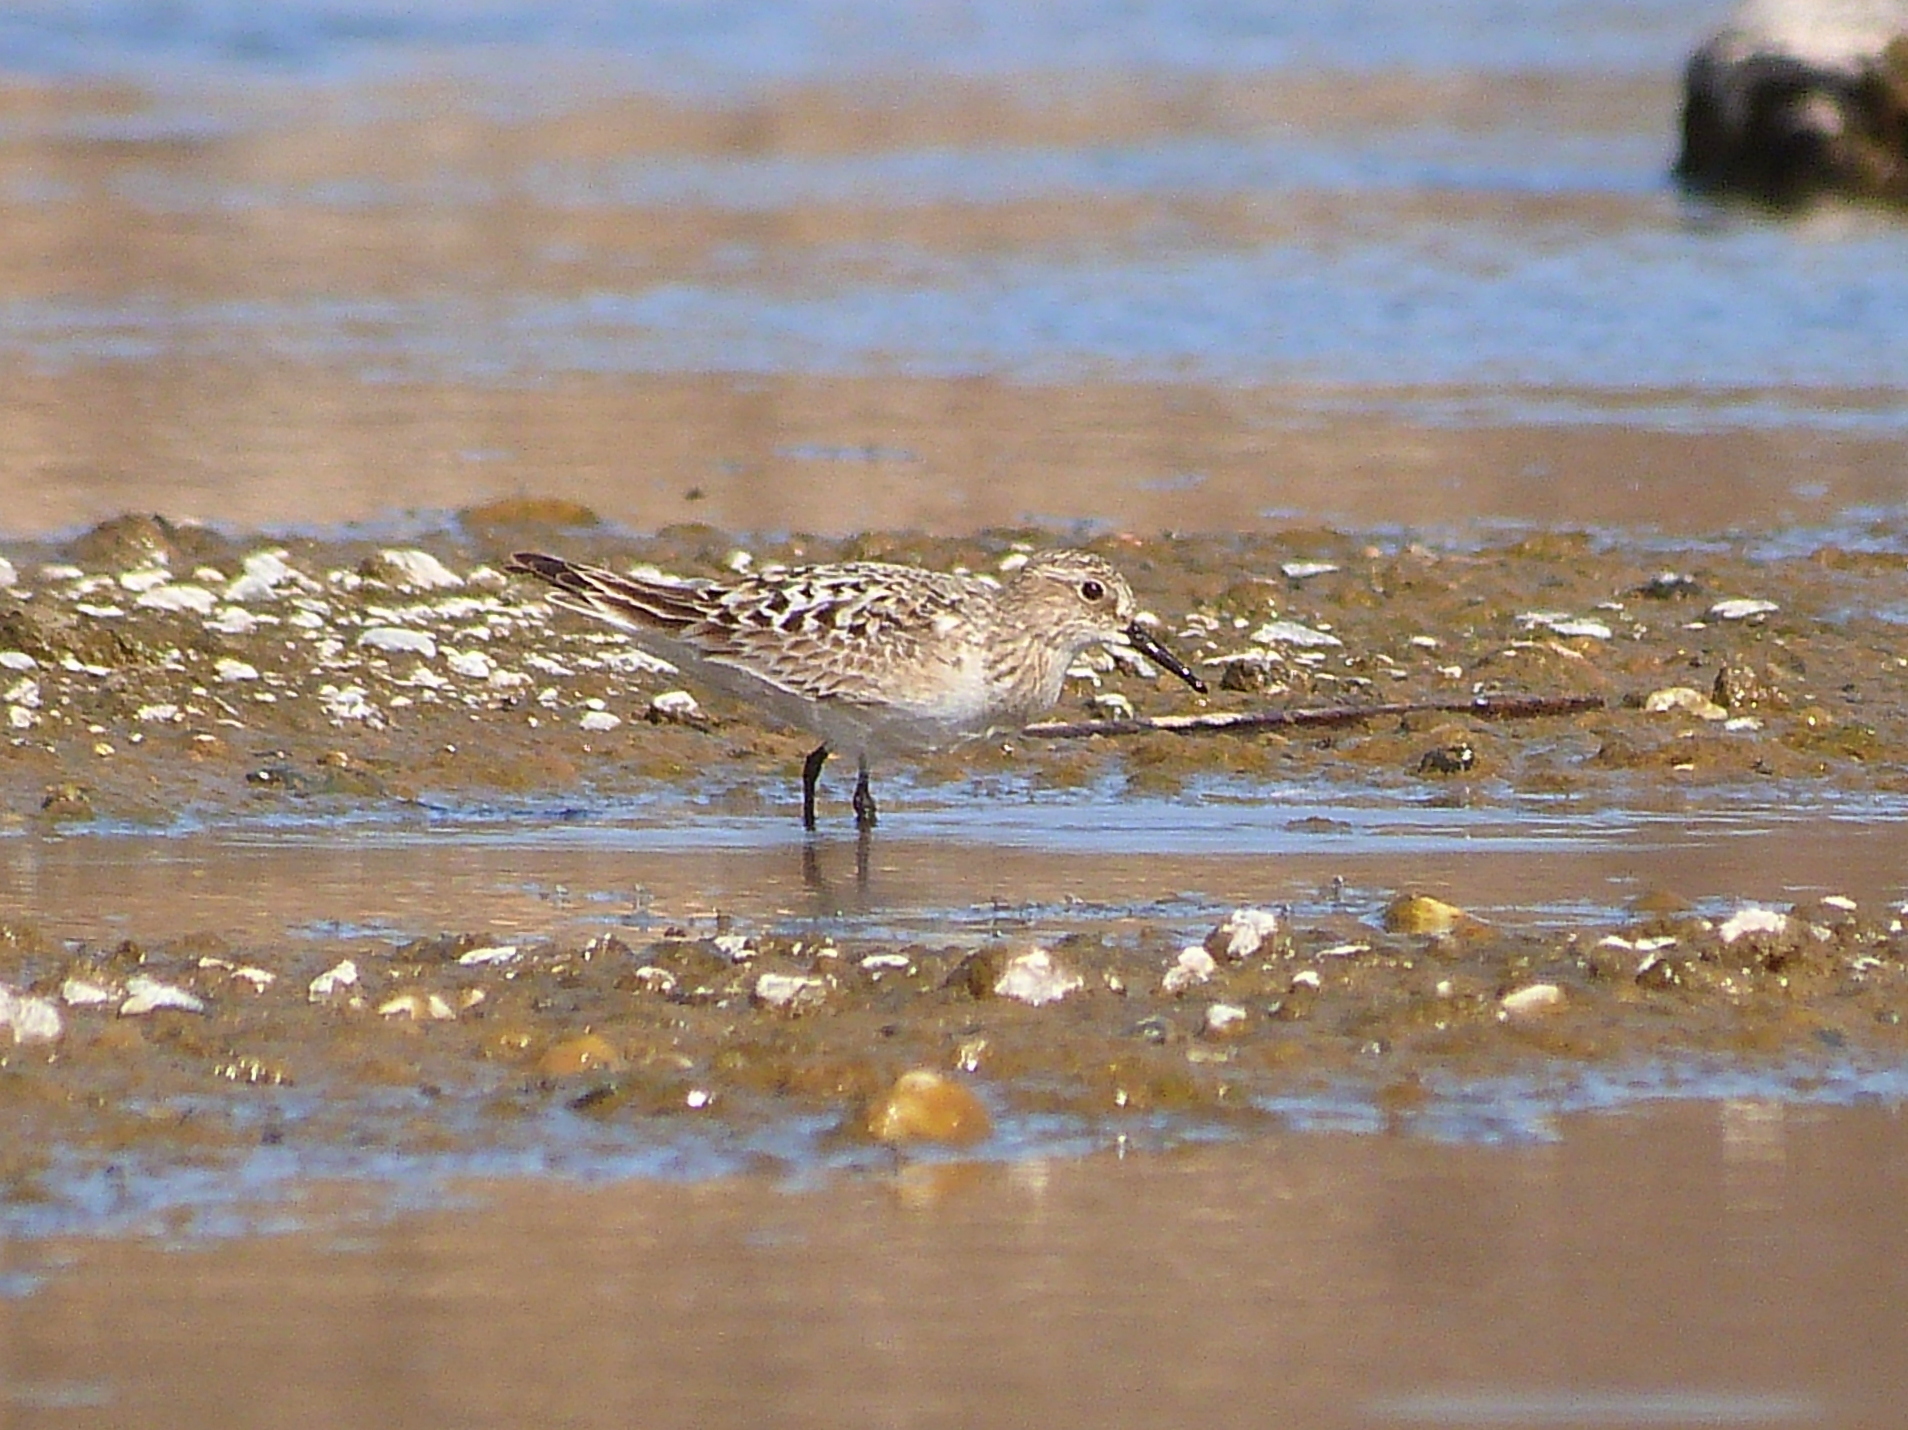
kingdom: Animalia
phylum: Chordata
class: Aves
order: Charadriiformes
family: Scolopacidae
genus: Calidris
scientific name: Calidris bairdii
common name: Baird's sandpiper
